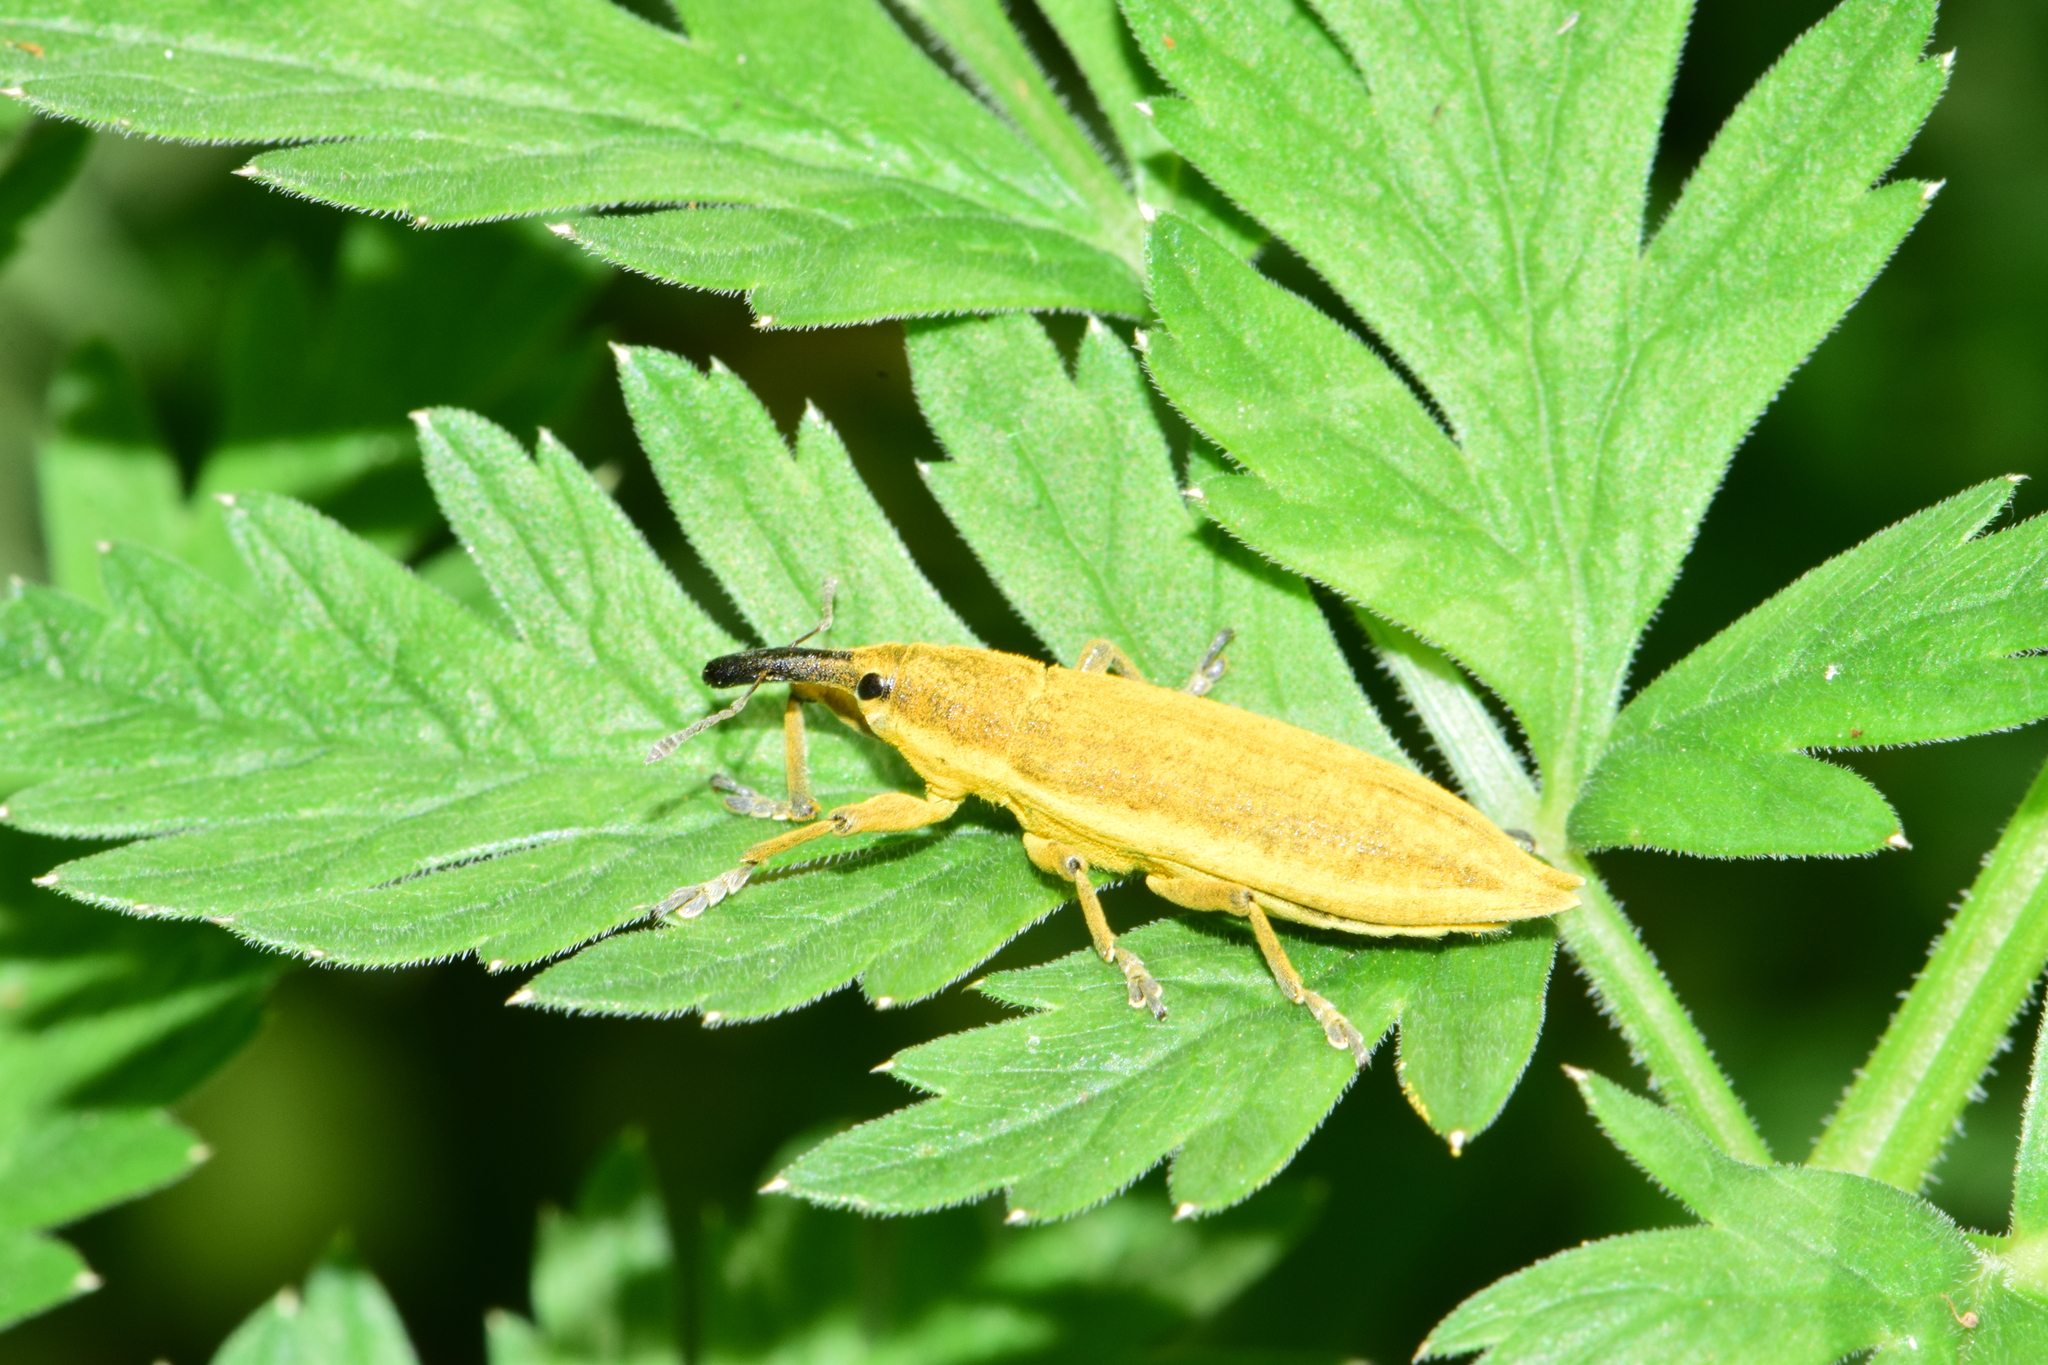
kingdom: Animalia
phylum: Arthropoda
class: Insecta
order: Coleoptera
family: Curculionidae
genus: Lixus
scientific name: Lixus iridis
